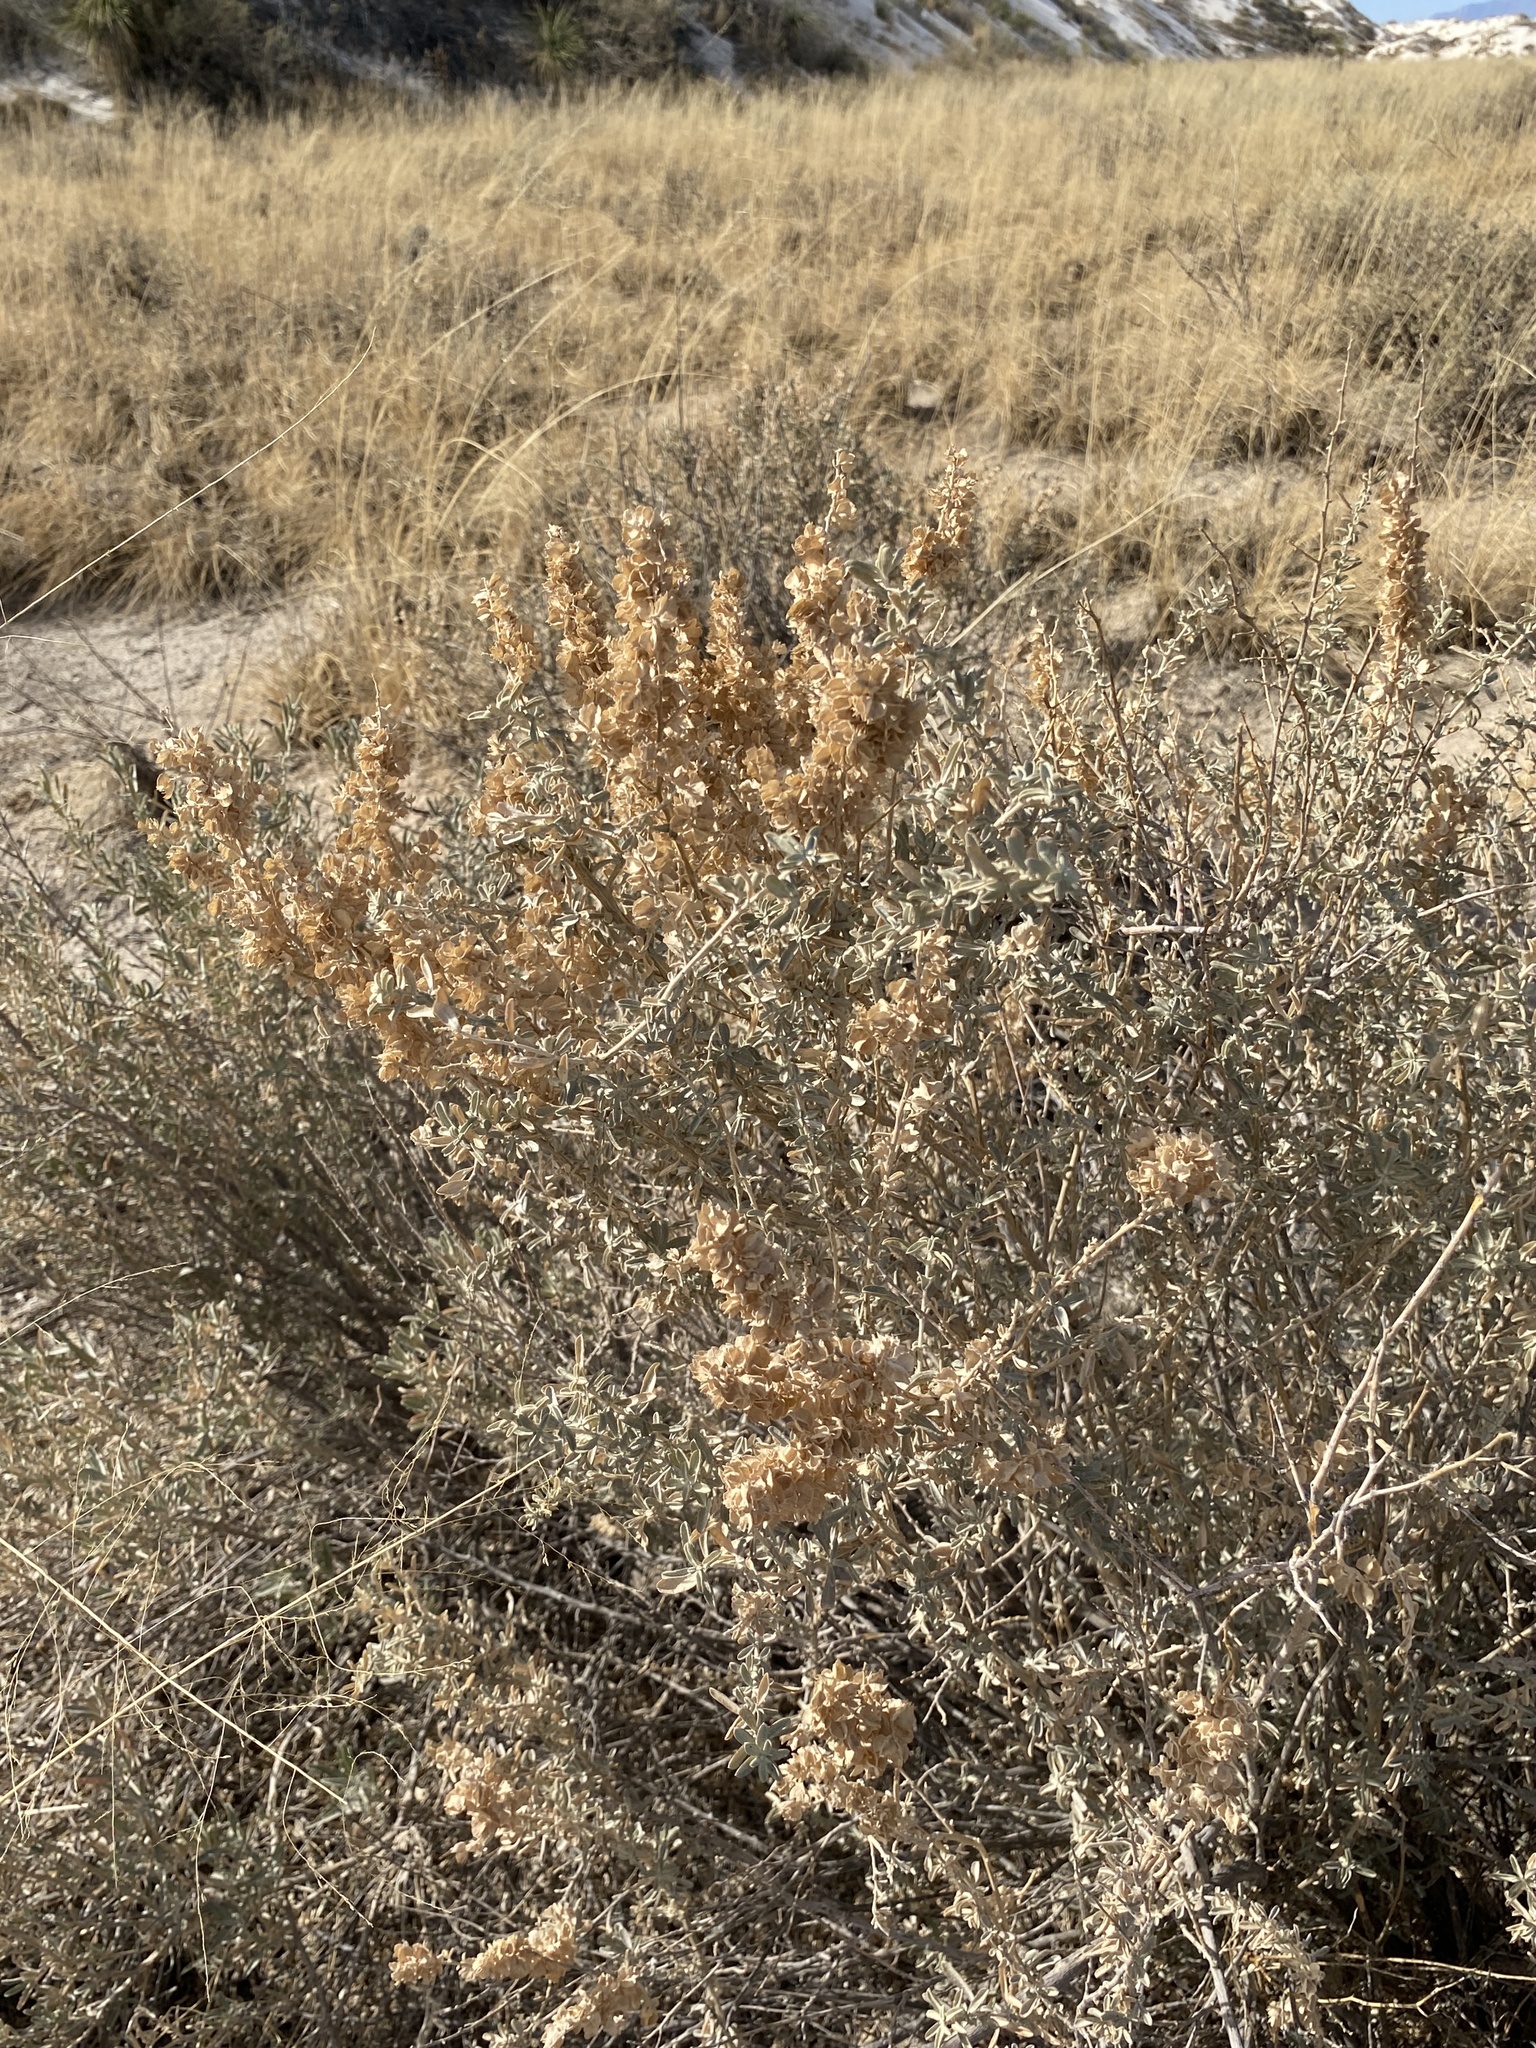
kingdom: Plantae
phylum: Tracheophyta
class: Magnoliopsida
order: Caryophyllales
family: Amaranthaceae
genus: Atriplex
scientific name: Atriplex canescens
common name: Four-wing saltbush
